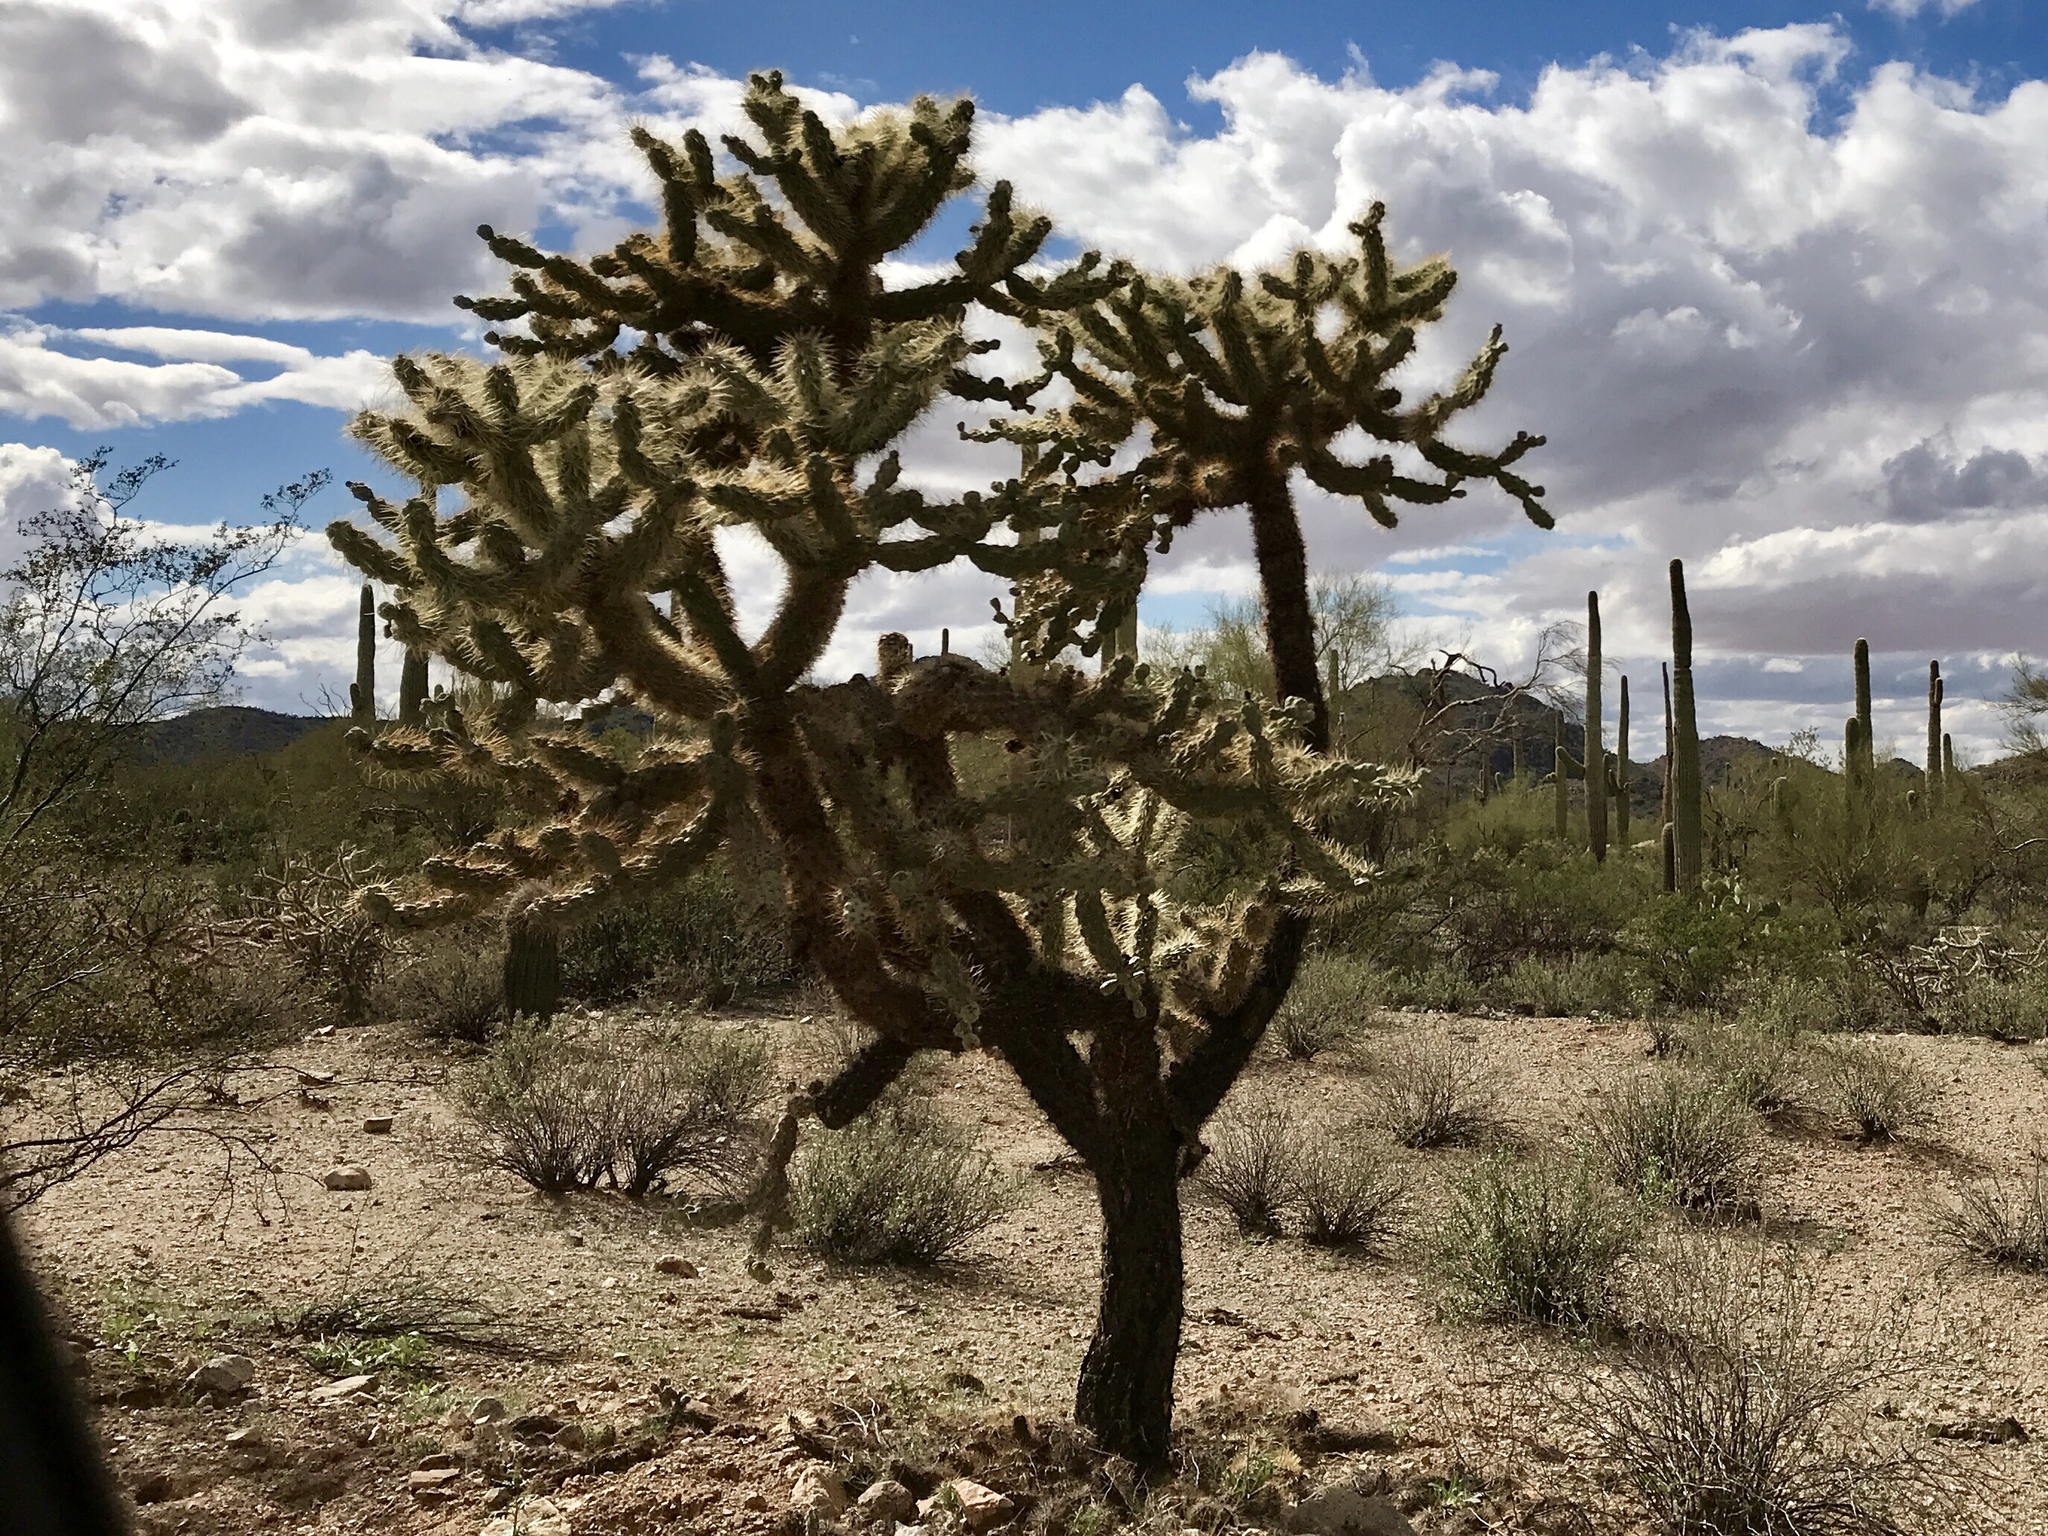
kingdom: Plantae
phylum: Tracheophyta
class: Magnoliopsida
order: Caryophyllales
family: Cactaceae
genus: Cylindropuntia
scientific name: Cylindropuntia fulgida
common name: Jumping cholla
